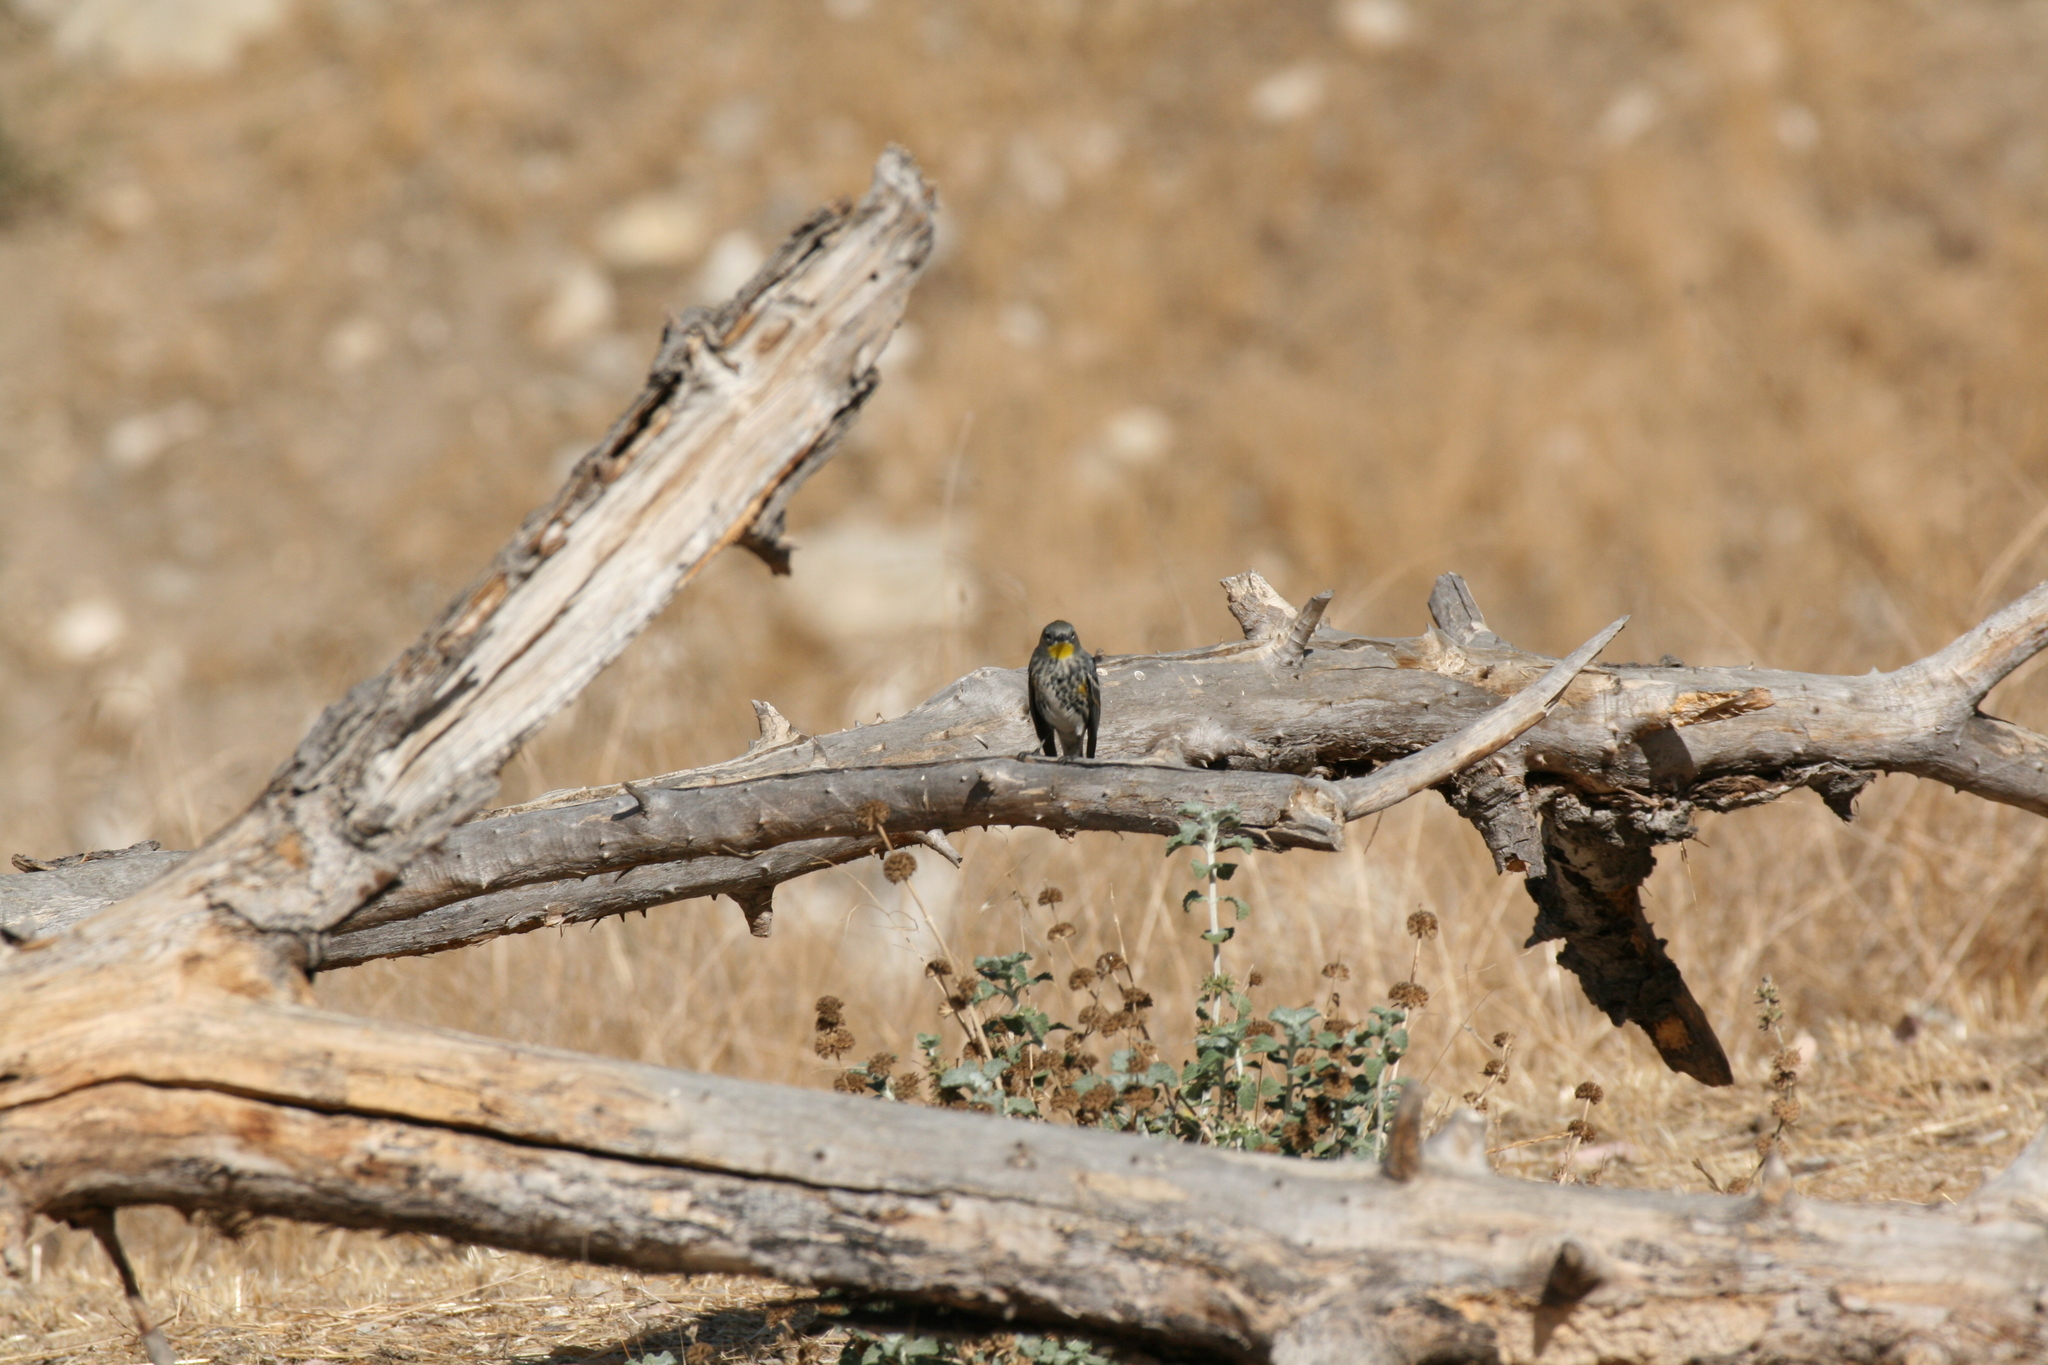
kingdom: Animalia
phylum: Chordata
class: Aves
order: Passeriformes
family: Parulidae
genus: Setophaga
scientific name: Setophaga coronata
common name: Myrtle warbler
